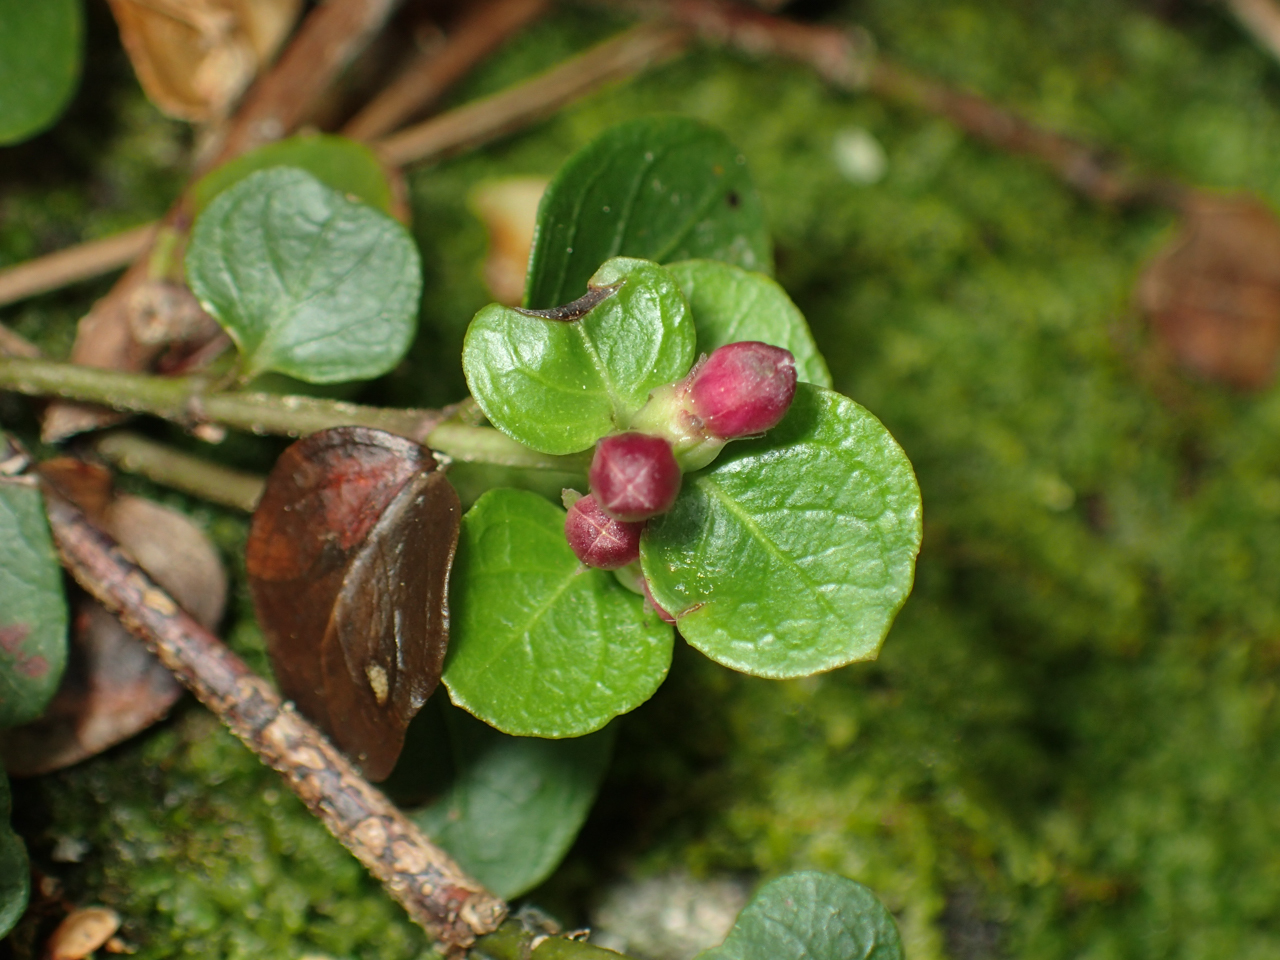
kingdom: Plantae
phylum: Tracheophyta
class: Magnoliopsida
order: Gentianales
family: Rubiaceae
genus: Mitchella
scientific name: Mitchella repens
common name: Partridge-berry
